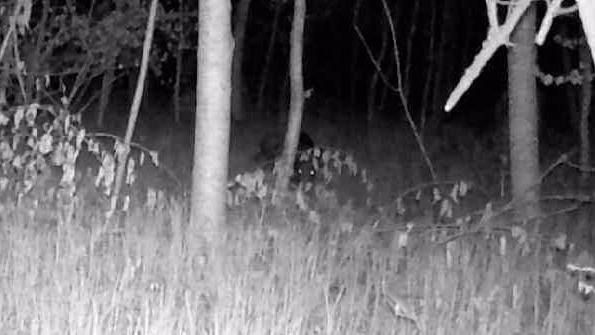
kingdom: Animalia
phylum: Chordata
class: Mammalia
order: Artiodactyla
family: Suidae
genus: Sus
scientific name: Sus scrofa
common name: Wild boar
